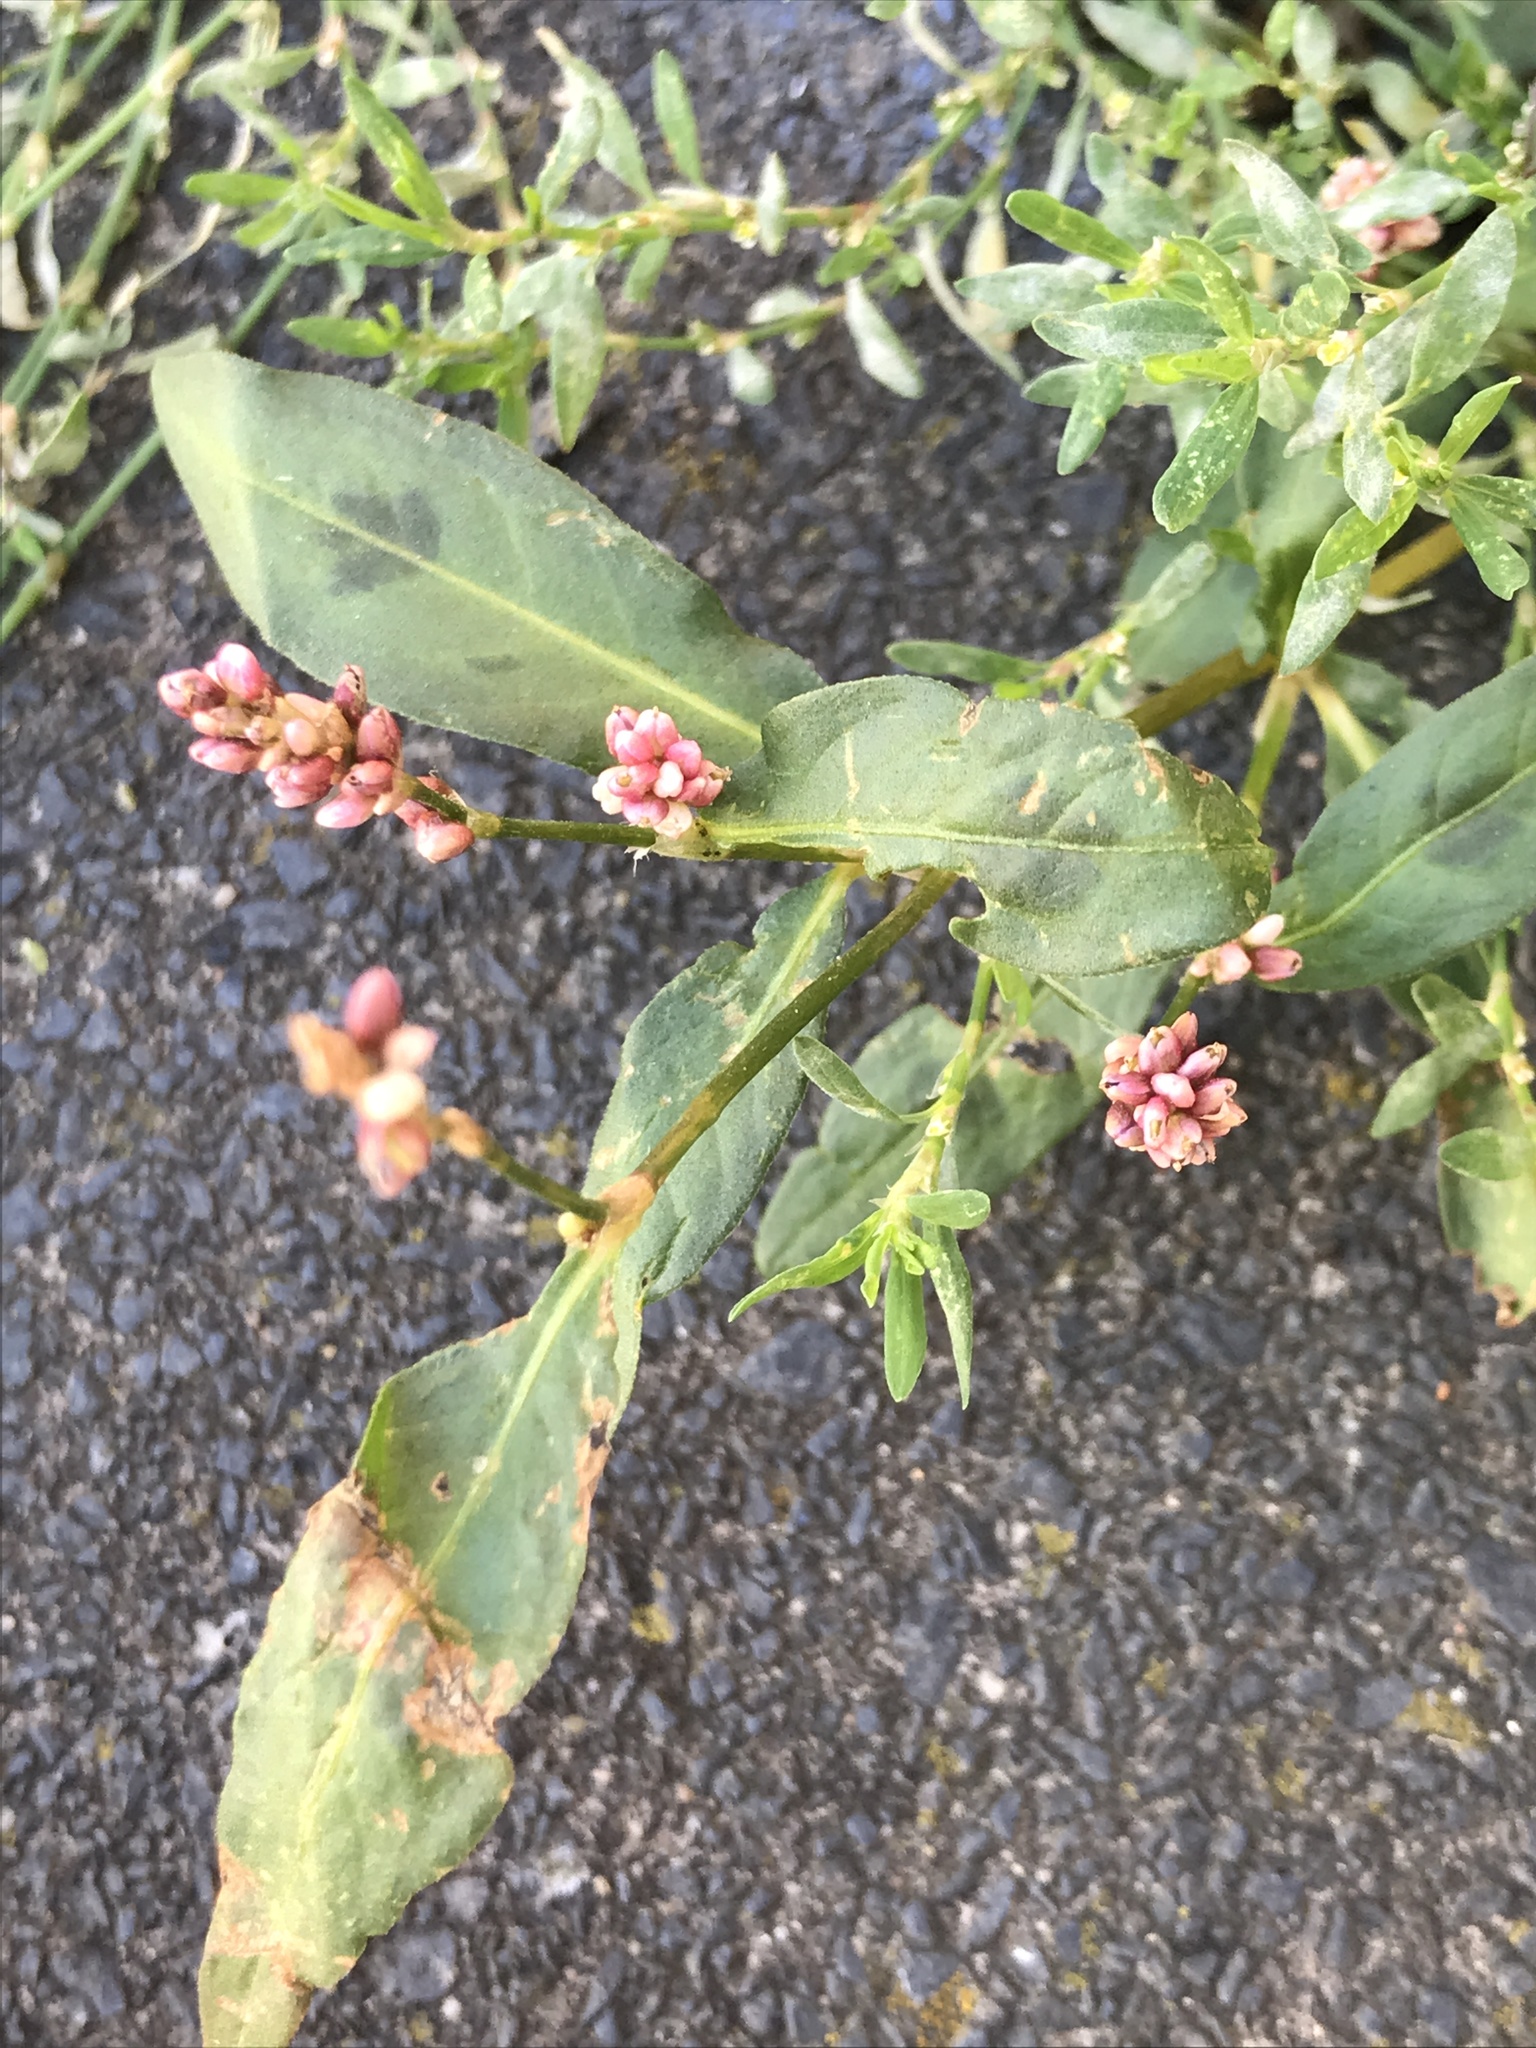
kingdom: Plantae
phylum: Tracheophyta
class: Magnoliopsida
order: Caryophyllales
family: Polygonaceae
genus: Persicaria
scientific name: Persicaria maculosa
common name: Redshank
